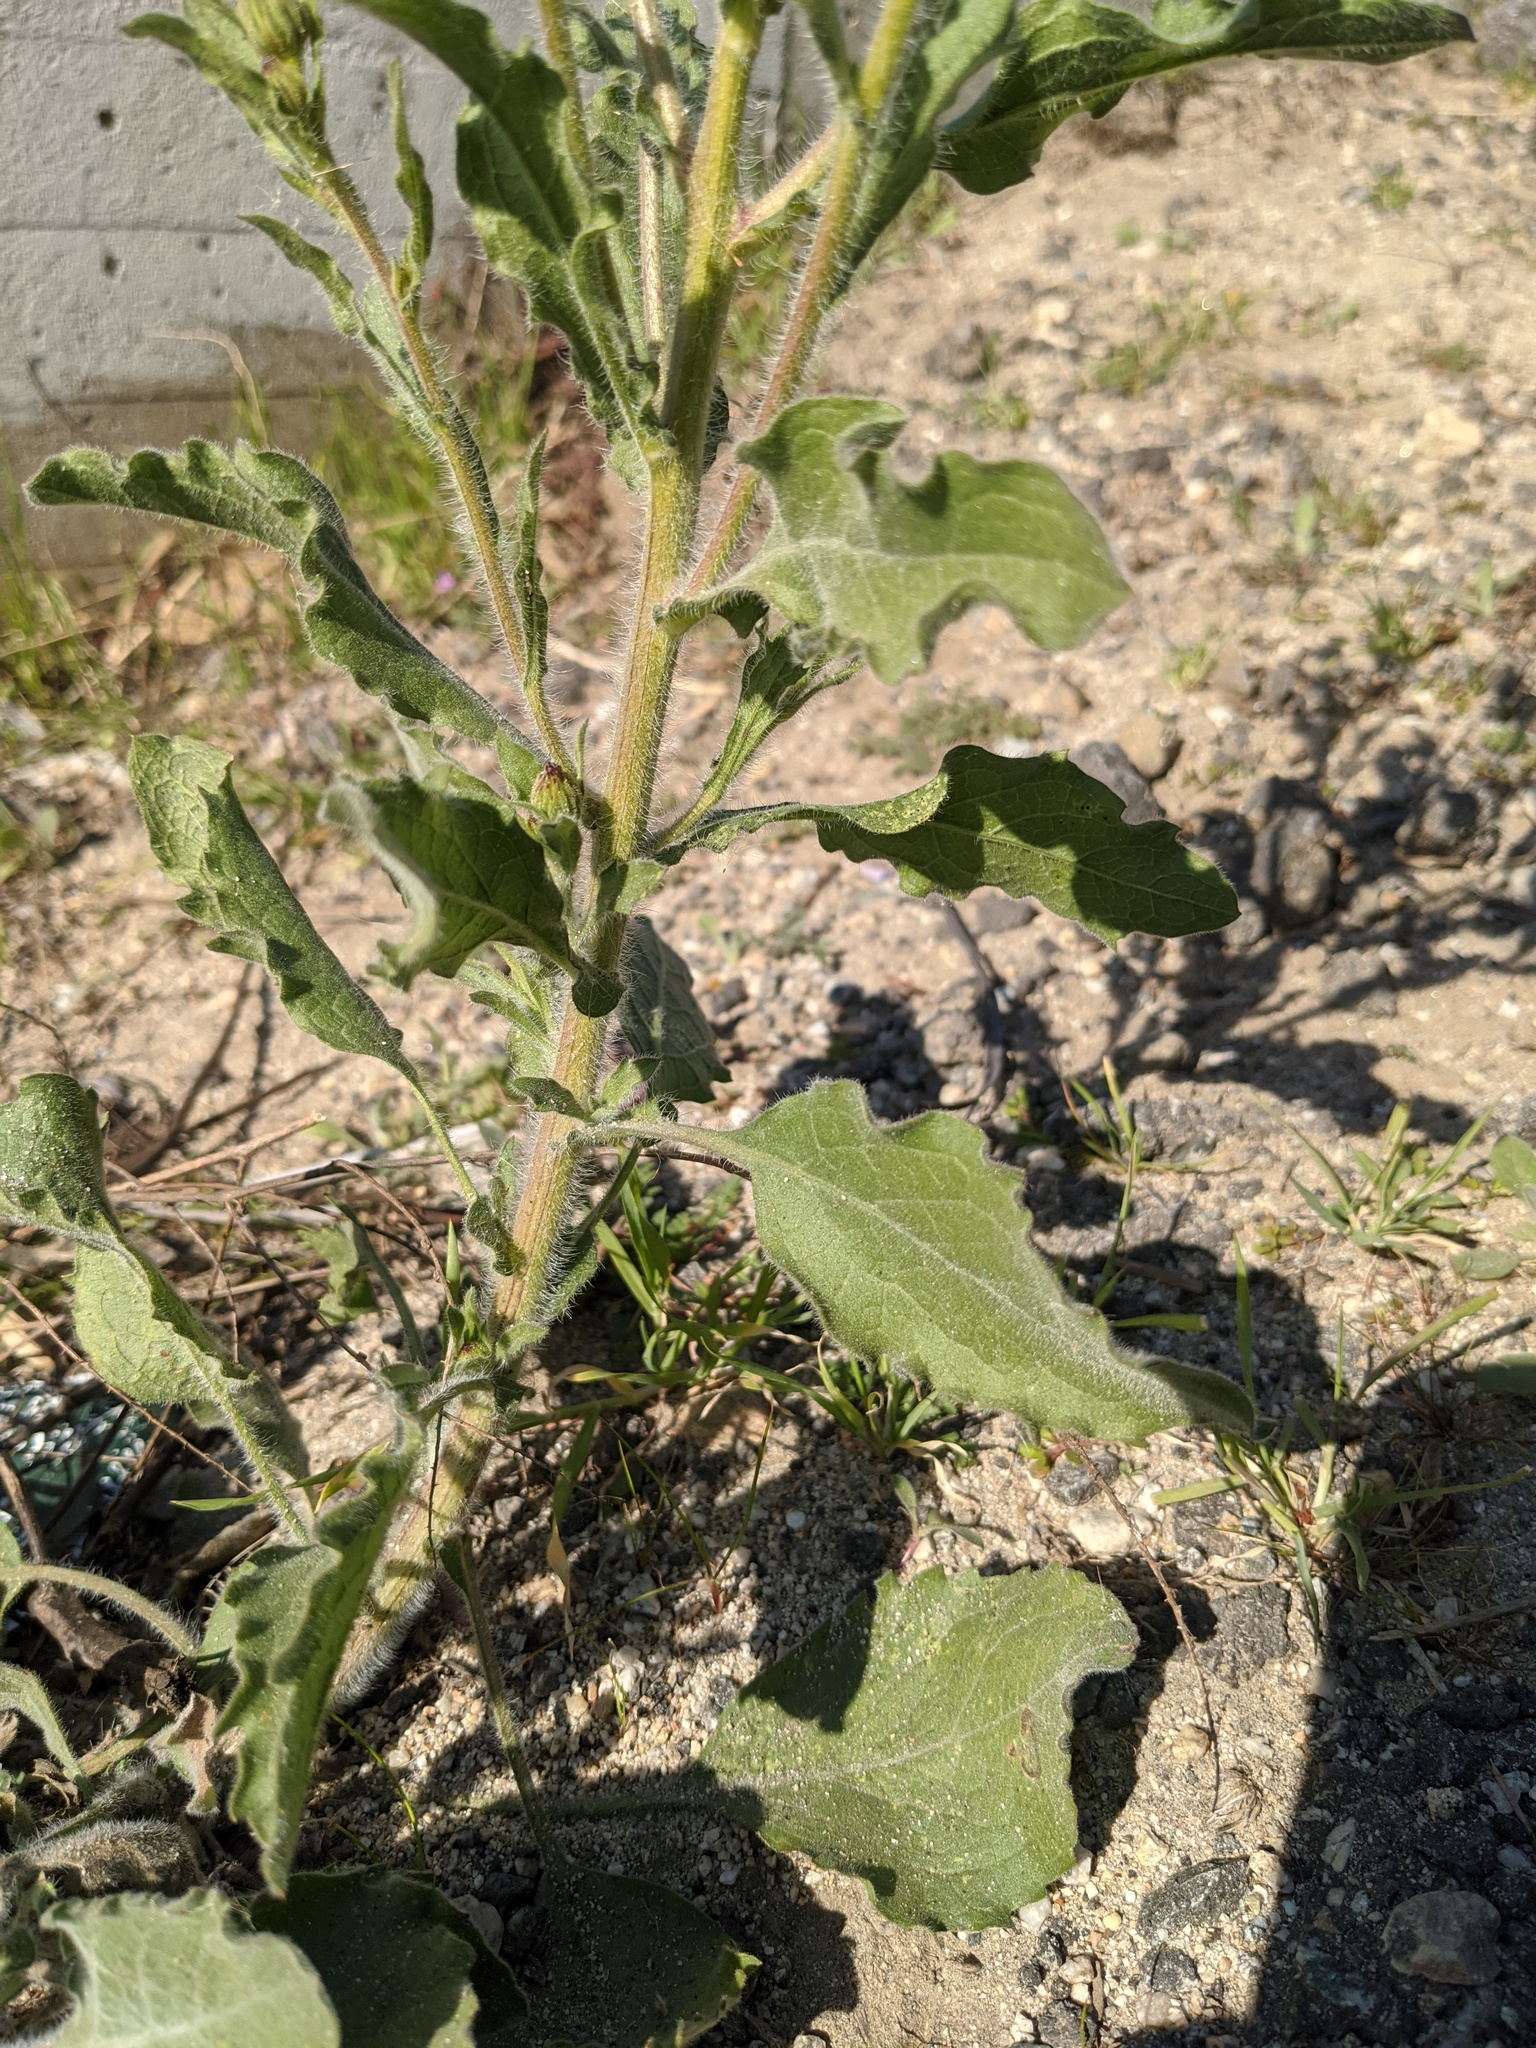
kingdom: Plantae
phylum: Tracheophyta
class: Magnoliopsida
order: Asterales
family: Asteraceae
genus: Heterotheca
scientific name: Heterotheca grandiflora
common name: Telegraphweed
